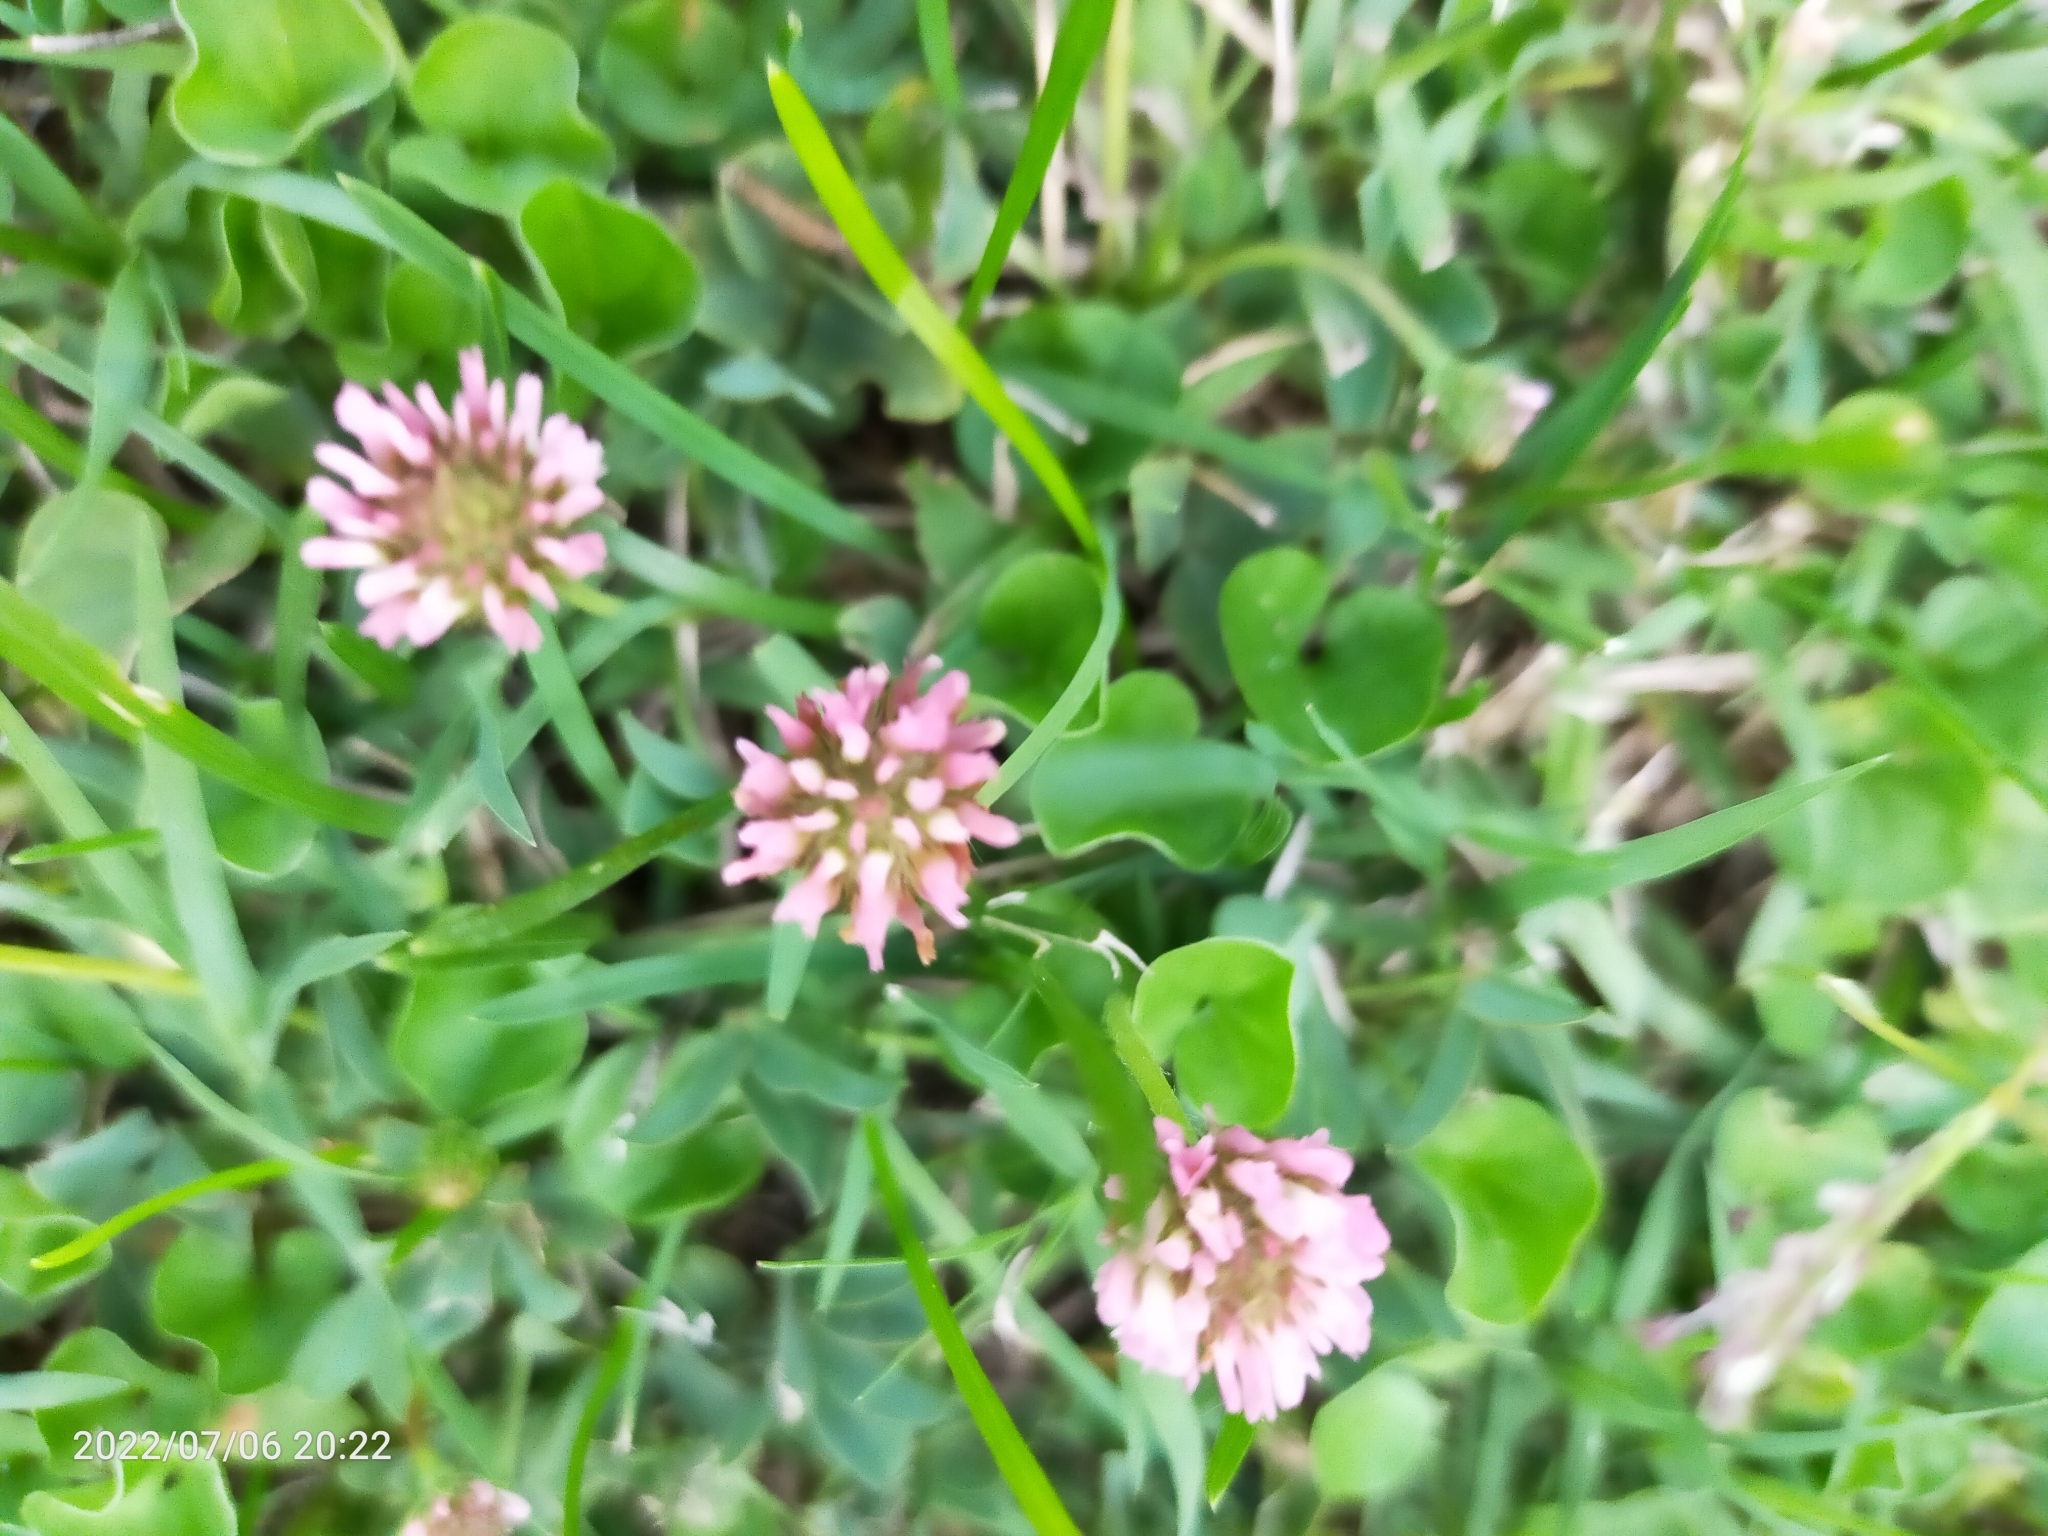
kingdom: Plantae
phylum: Tracheophyta
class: Magnoliopsida
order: Fabales
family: Fabaceae
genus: Trifolium
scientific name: Trifolium pratense
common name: Red clover
